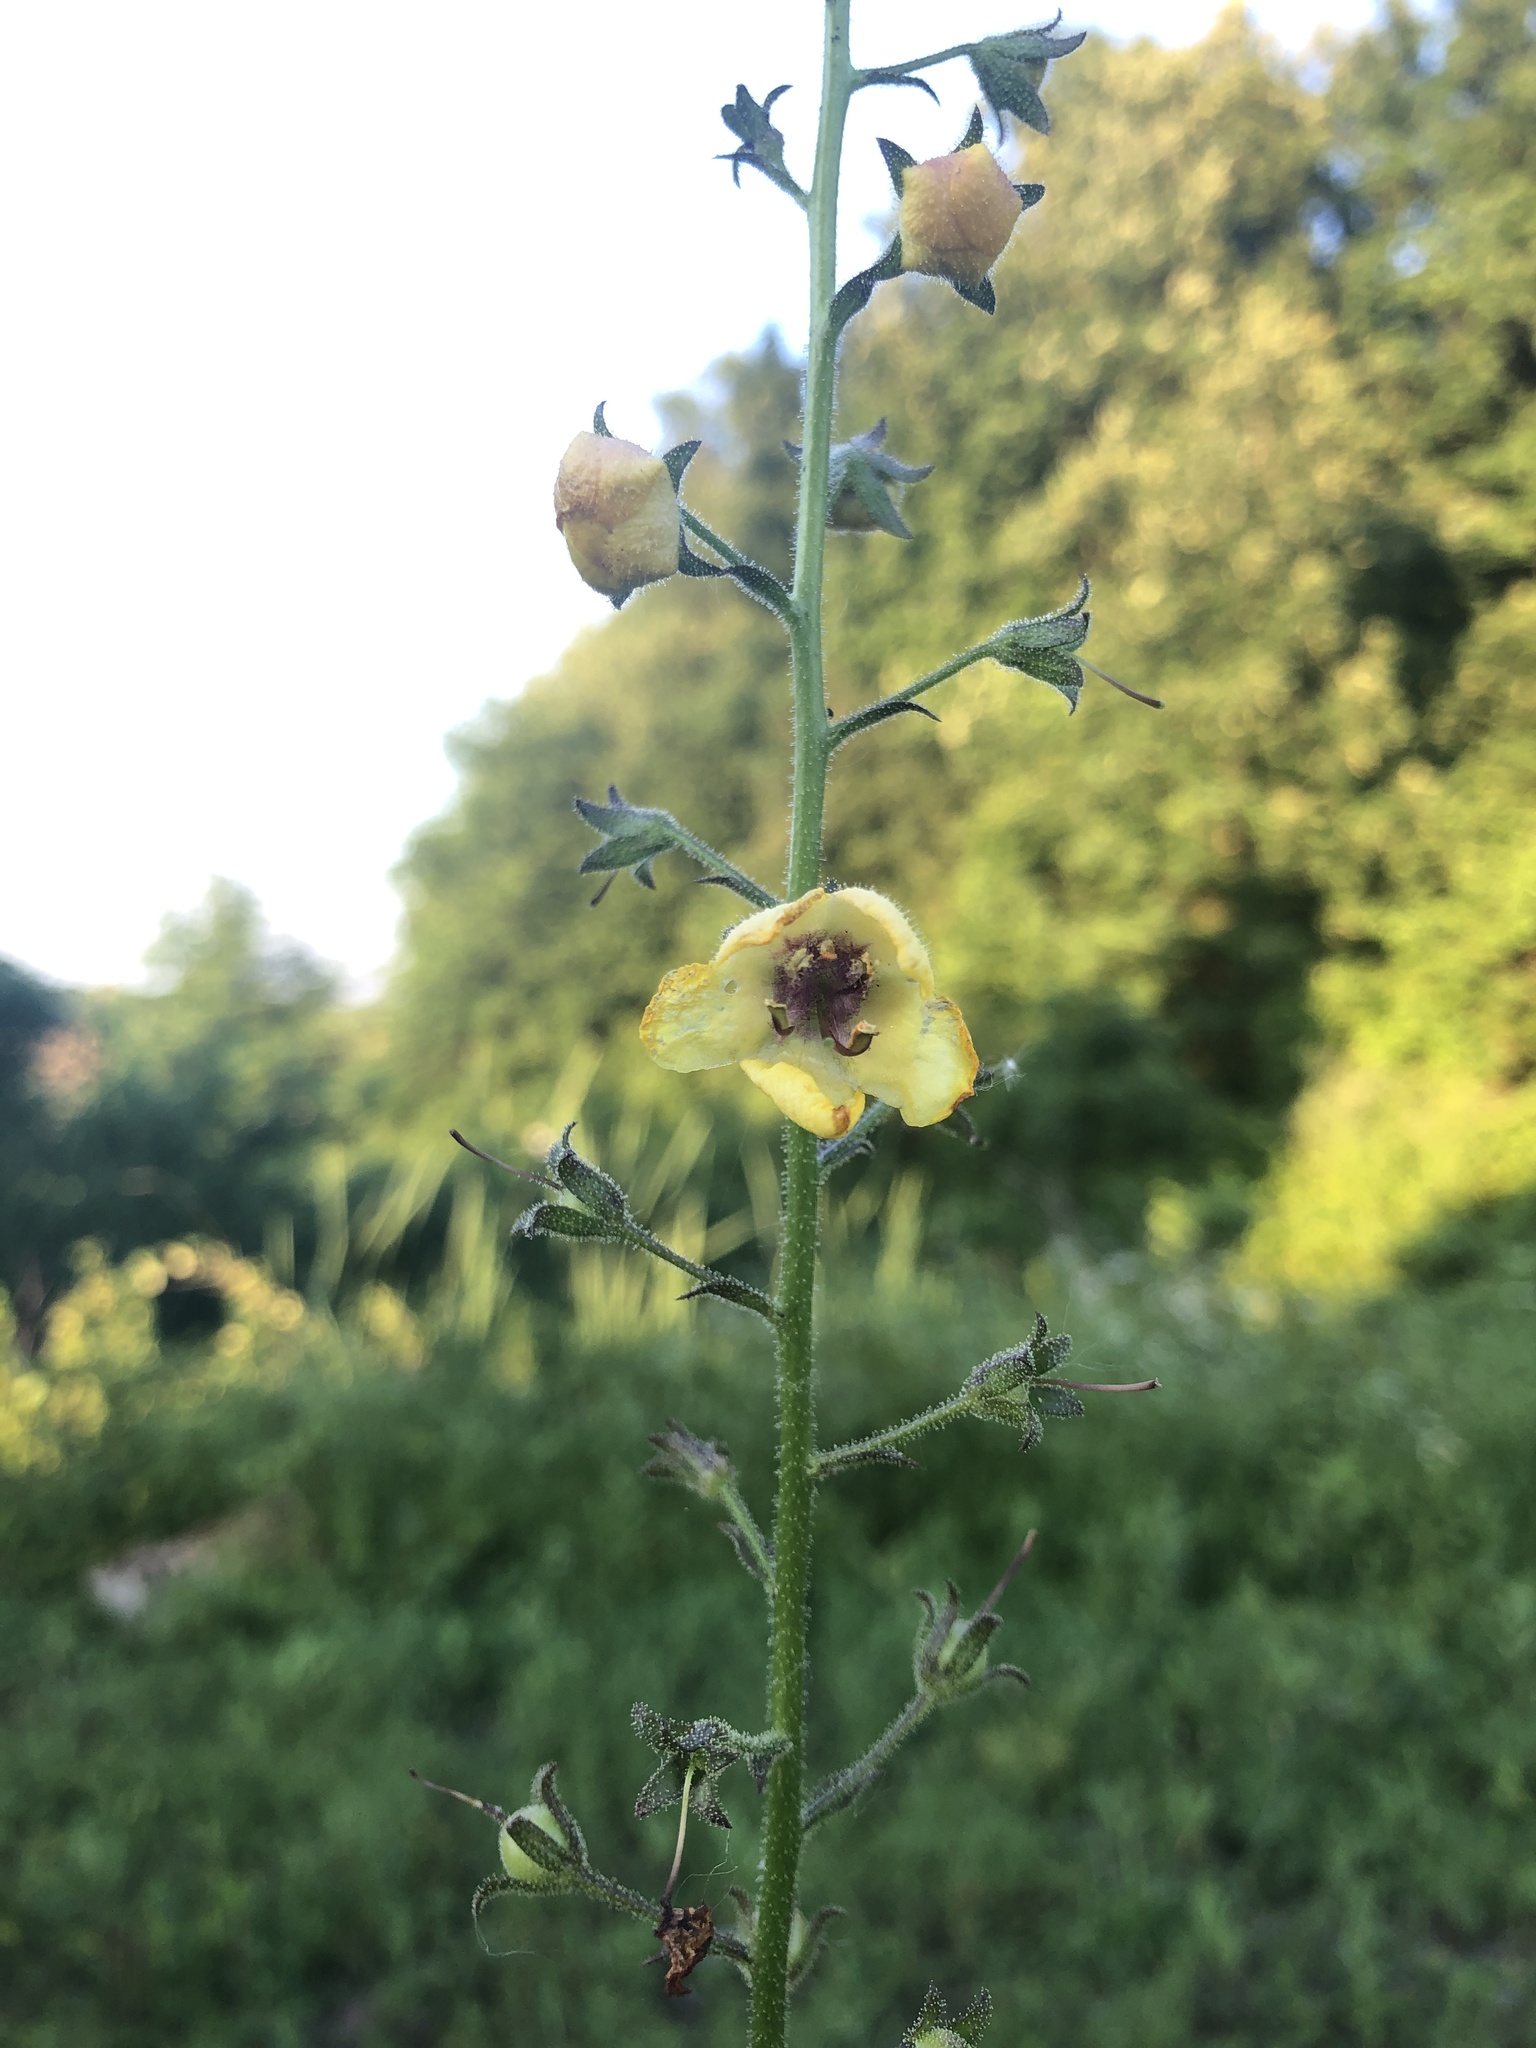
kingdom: Plantae
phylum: Tracheophyta
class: Magnoliopsida
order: Lamiales
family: Scrophulariaceae
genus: Verbascum
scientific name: Verbascum blattaria
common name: Moth mullein
